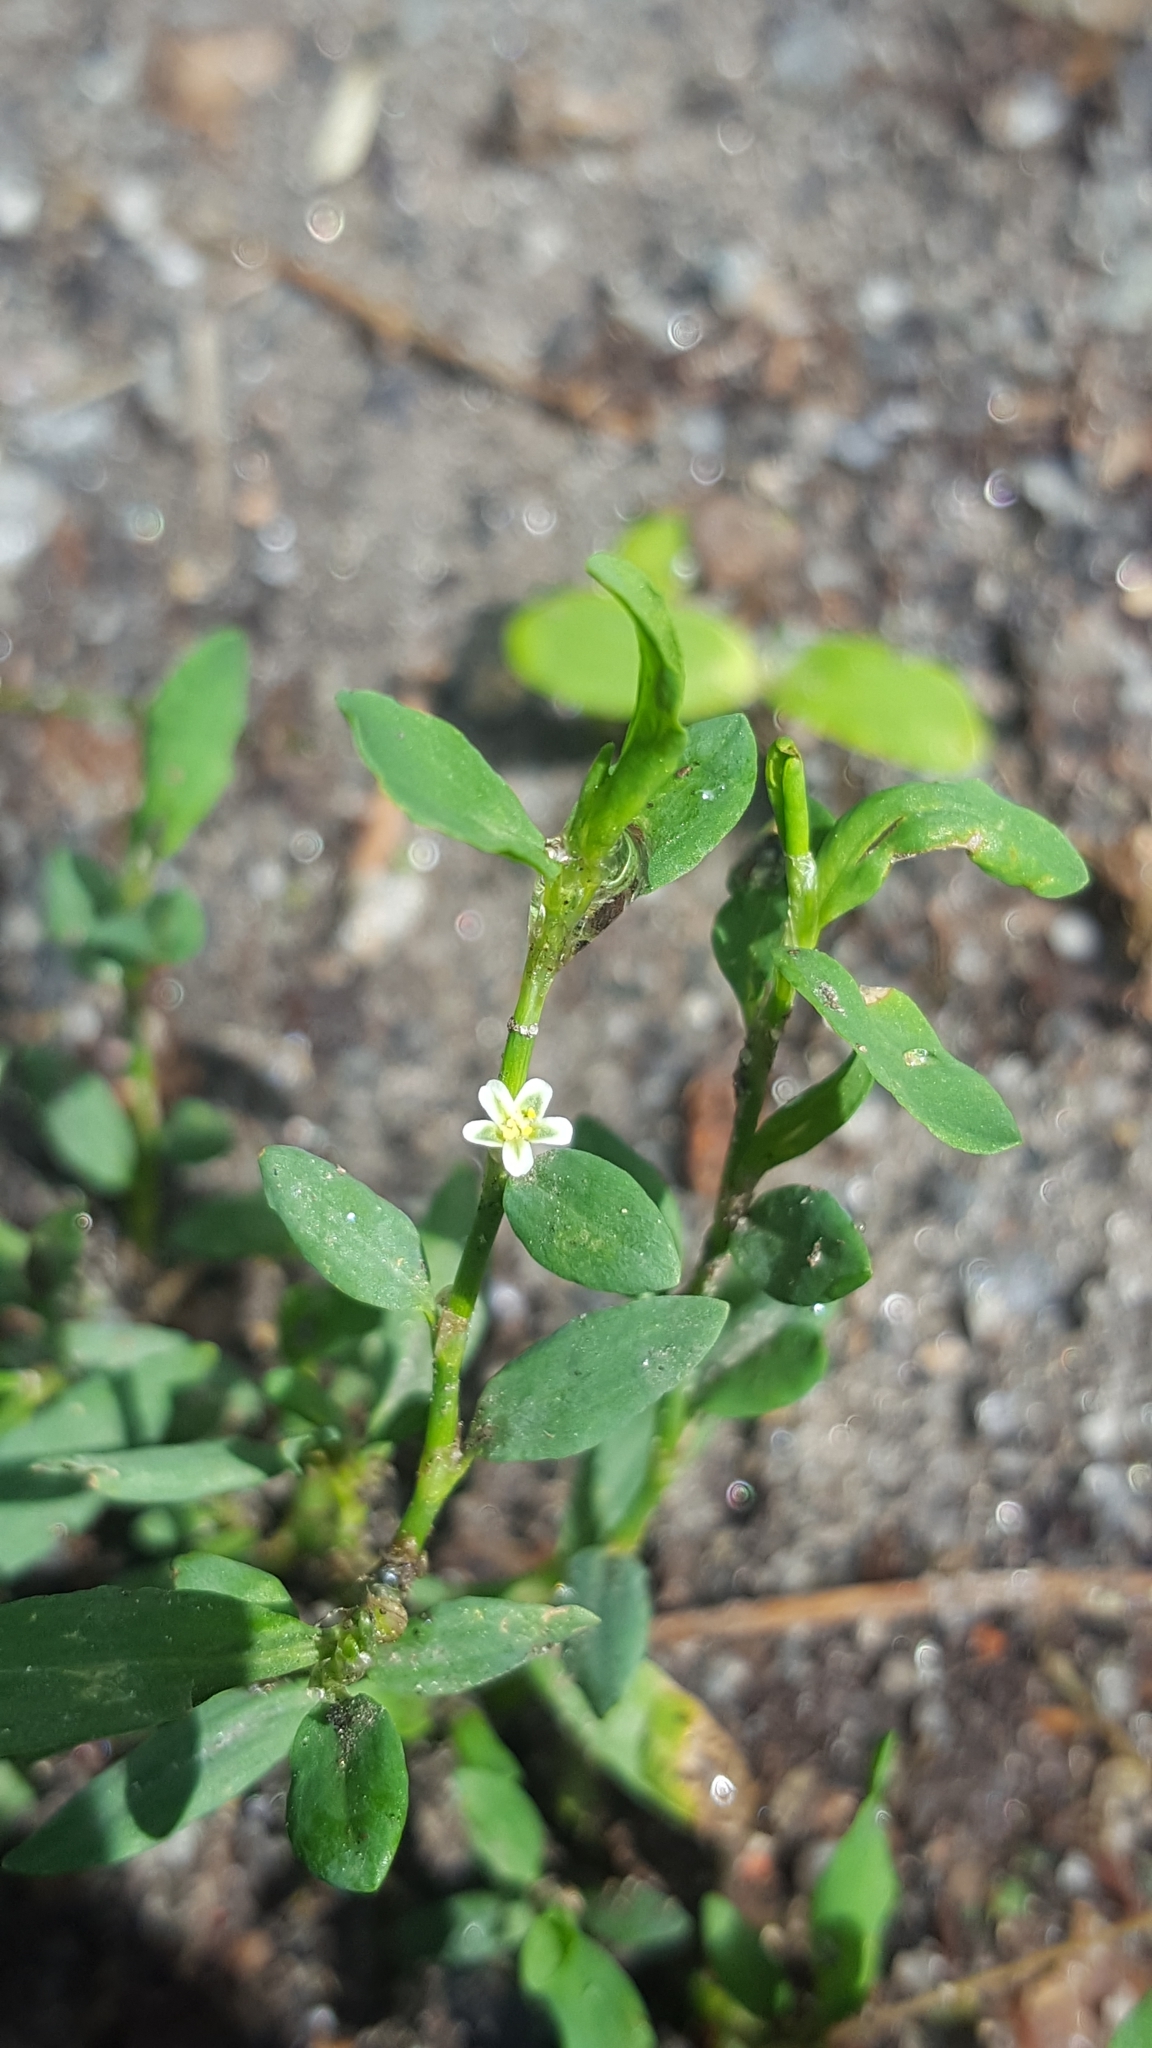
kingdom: Plantae
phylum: Tracheophyta
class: Magnoliopsida
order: Caryophyllales
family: Polygonaceae
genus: Polygonum
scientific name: Polygonum aviculare
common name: Prostrate knotweed
